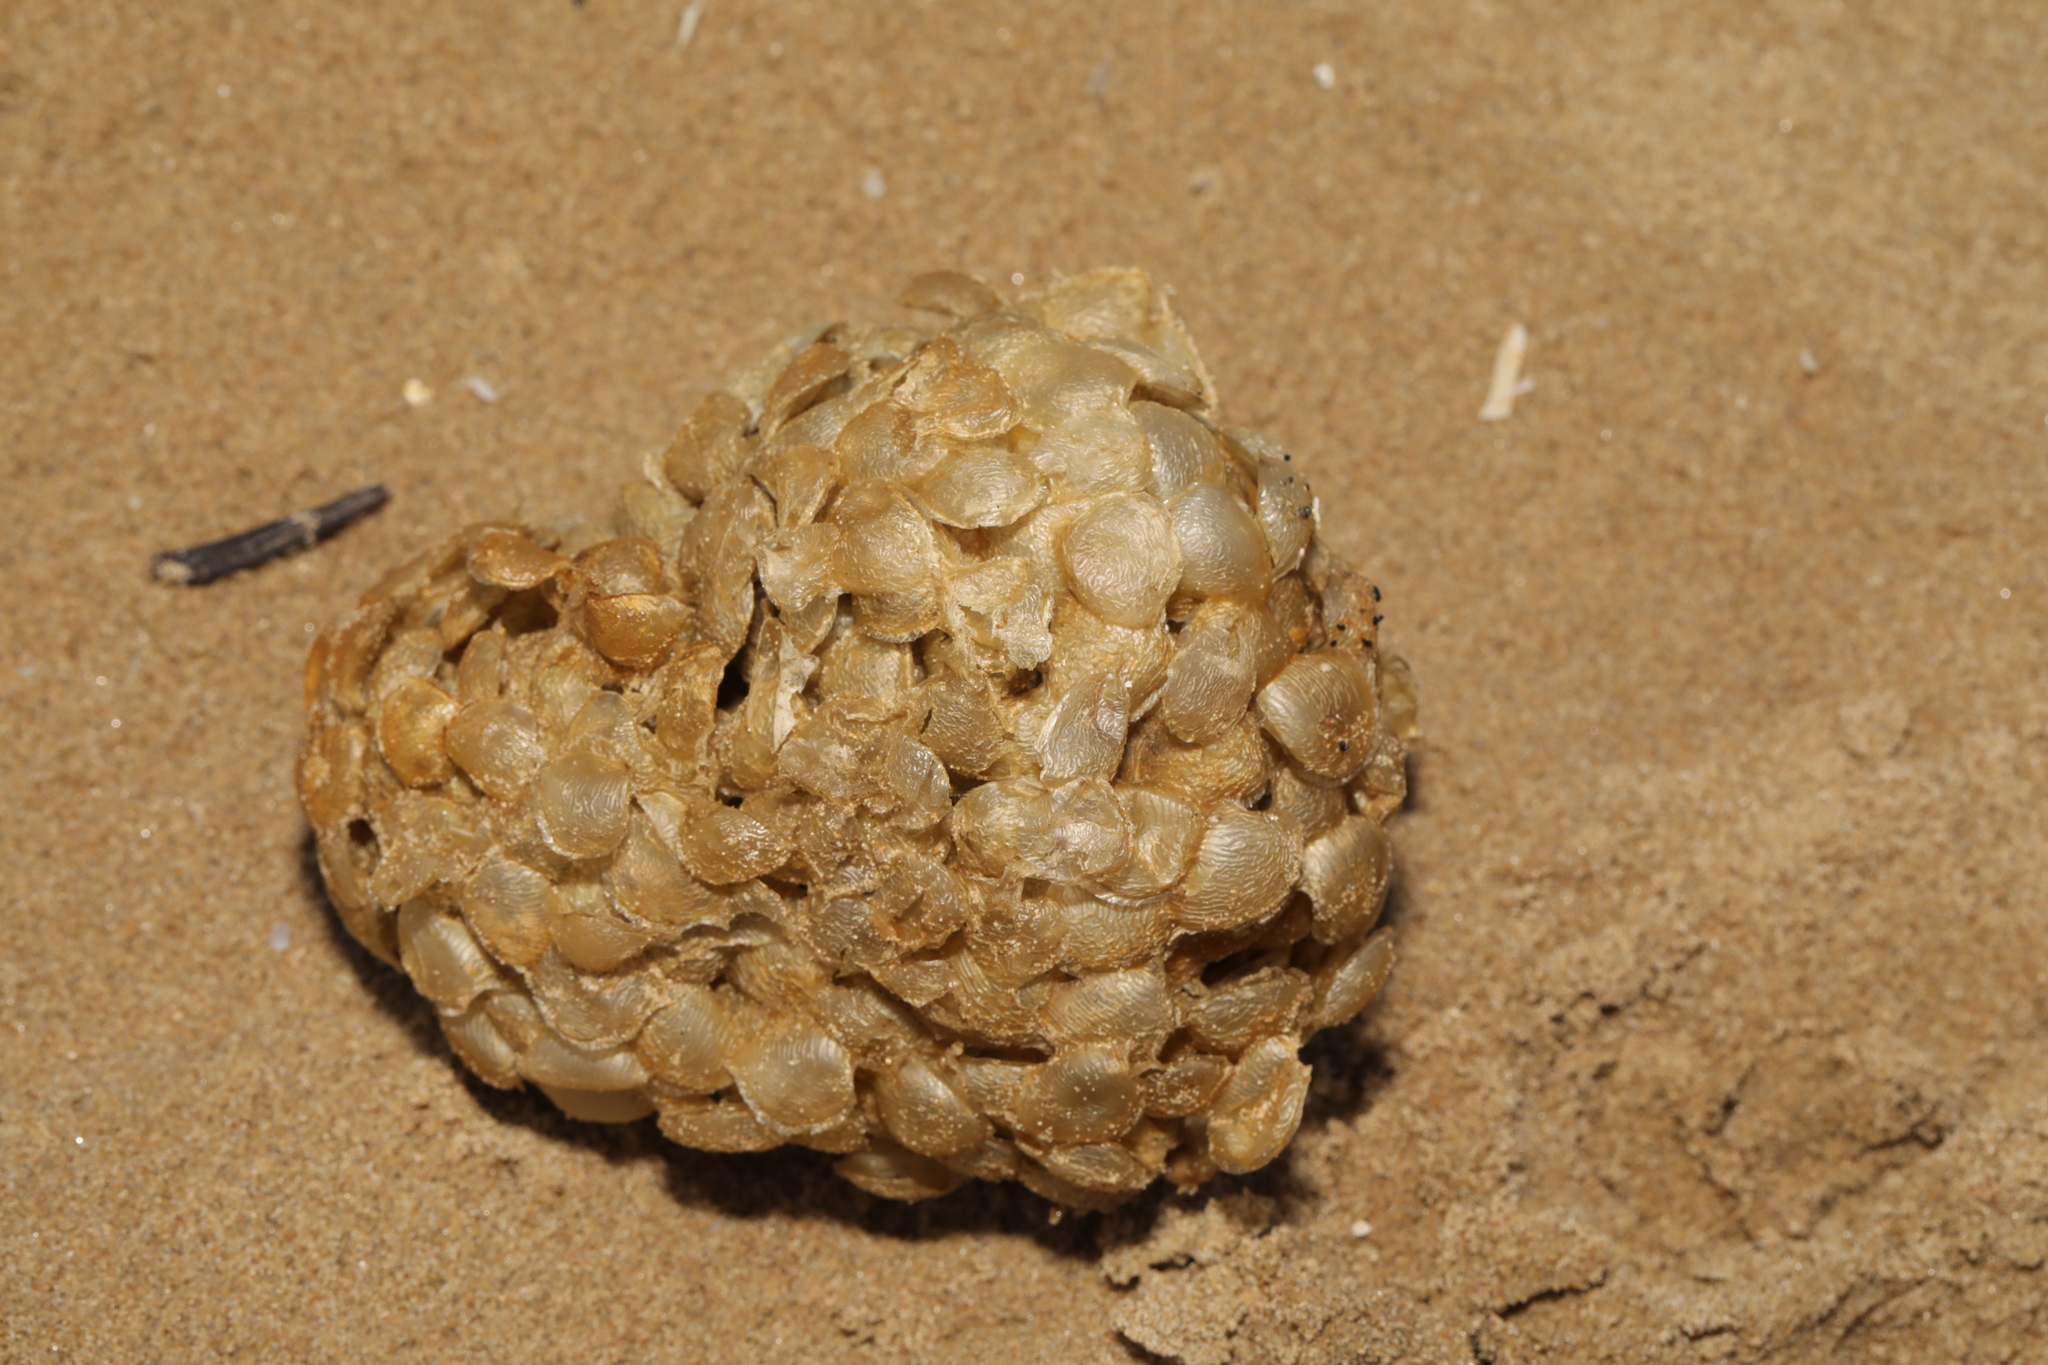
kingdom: Animalia
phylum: Mollusca
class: Gastropoda
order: Neogastropoda
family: Buccinidae
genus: Buccinum
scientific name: Buccinum undatum
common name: Common whelk
